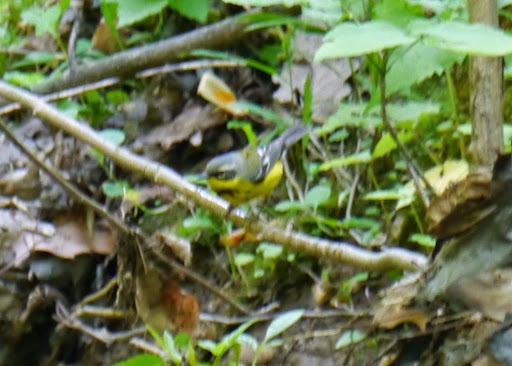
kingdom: Animalia
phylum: Chordata
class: Aves
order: Passeriformes
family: Parulidae
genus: Setophaga
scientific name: Setophaga ruticilla
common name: American redstart
